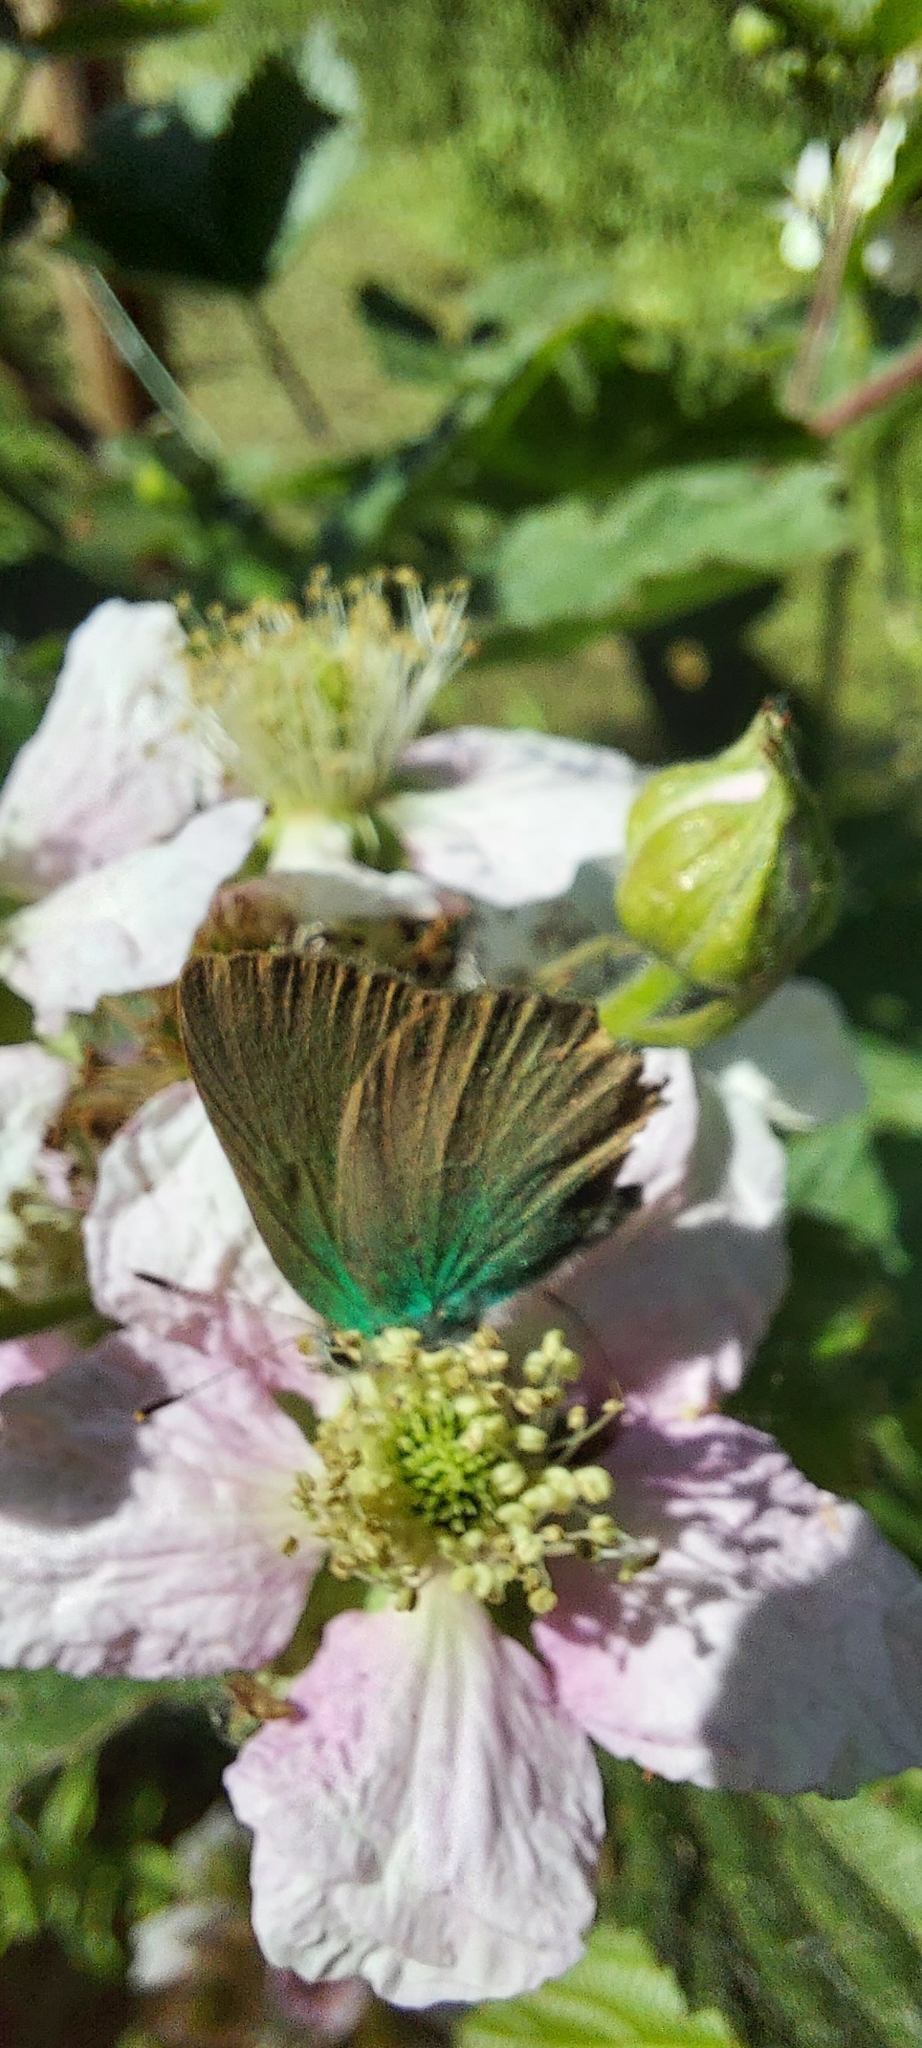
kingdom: Animalia
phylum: Arthropoda
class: Insecta
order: Lepidoptera
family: Lycaenidae
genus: Callophrys
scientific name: Callophrys rubi
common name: Green hairstreak
